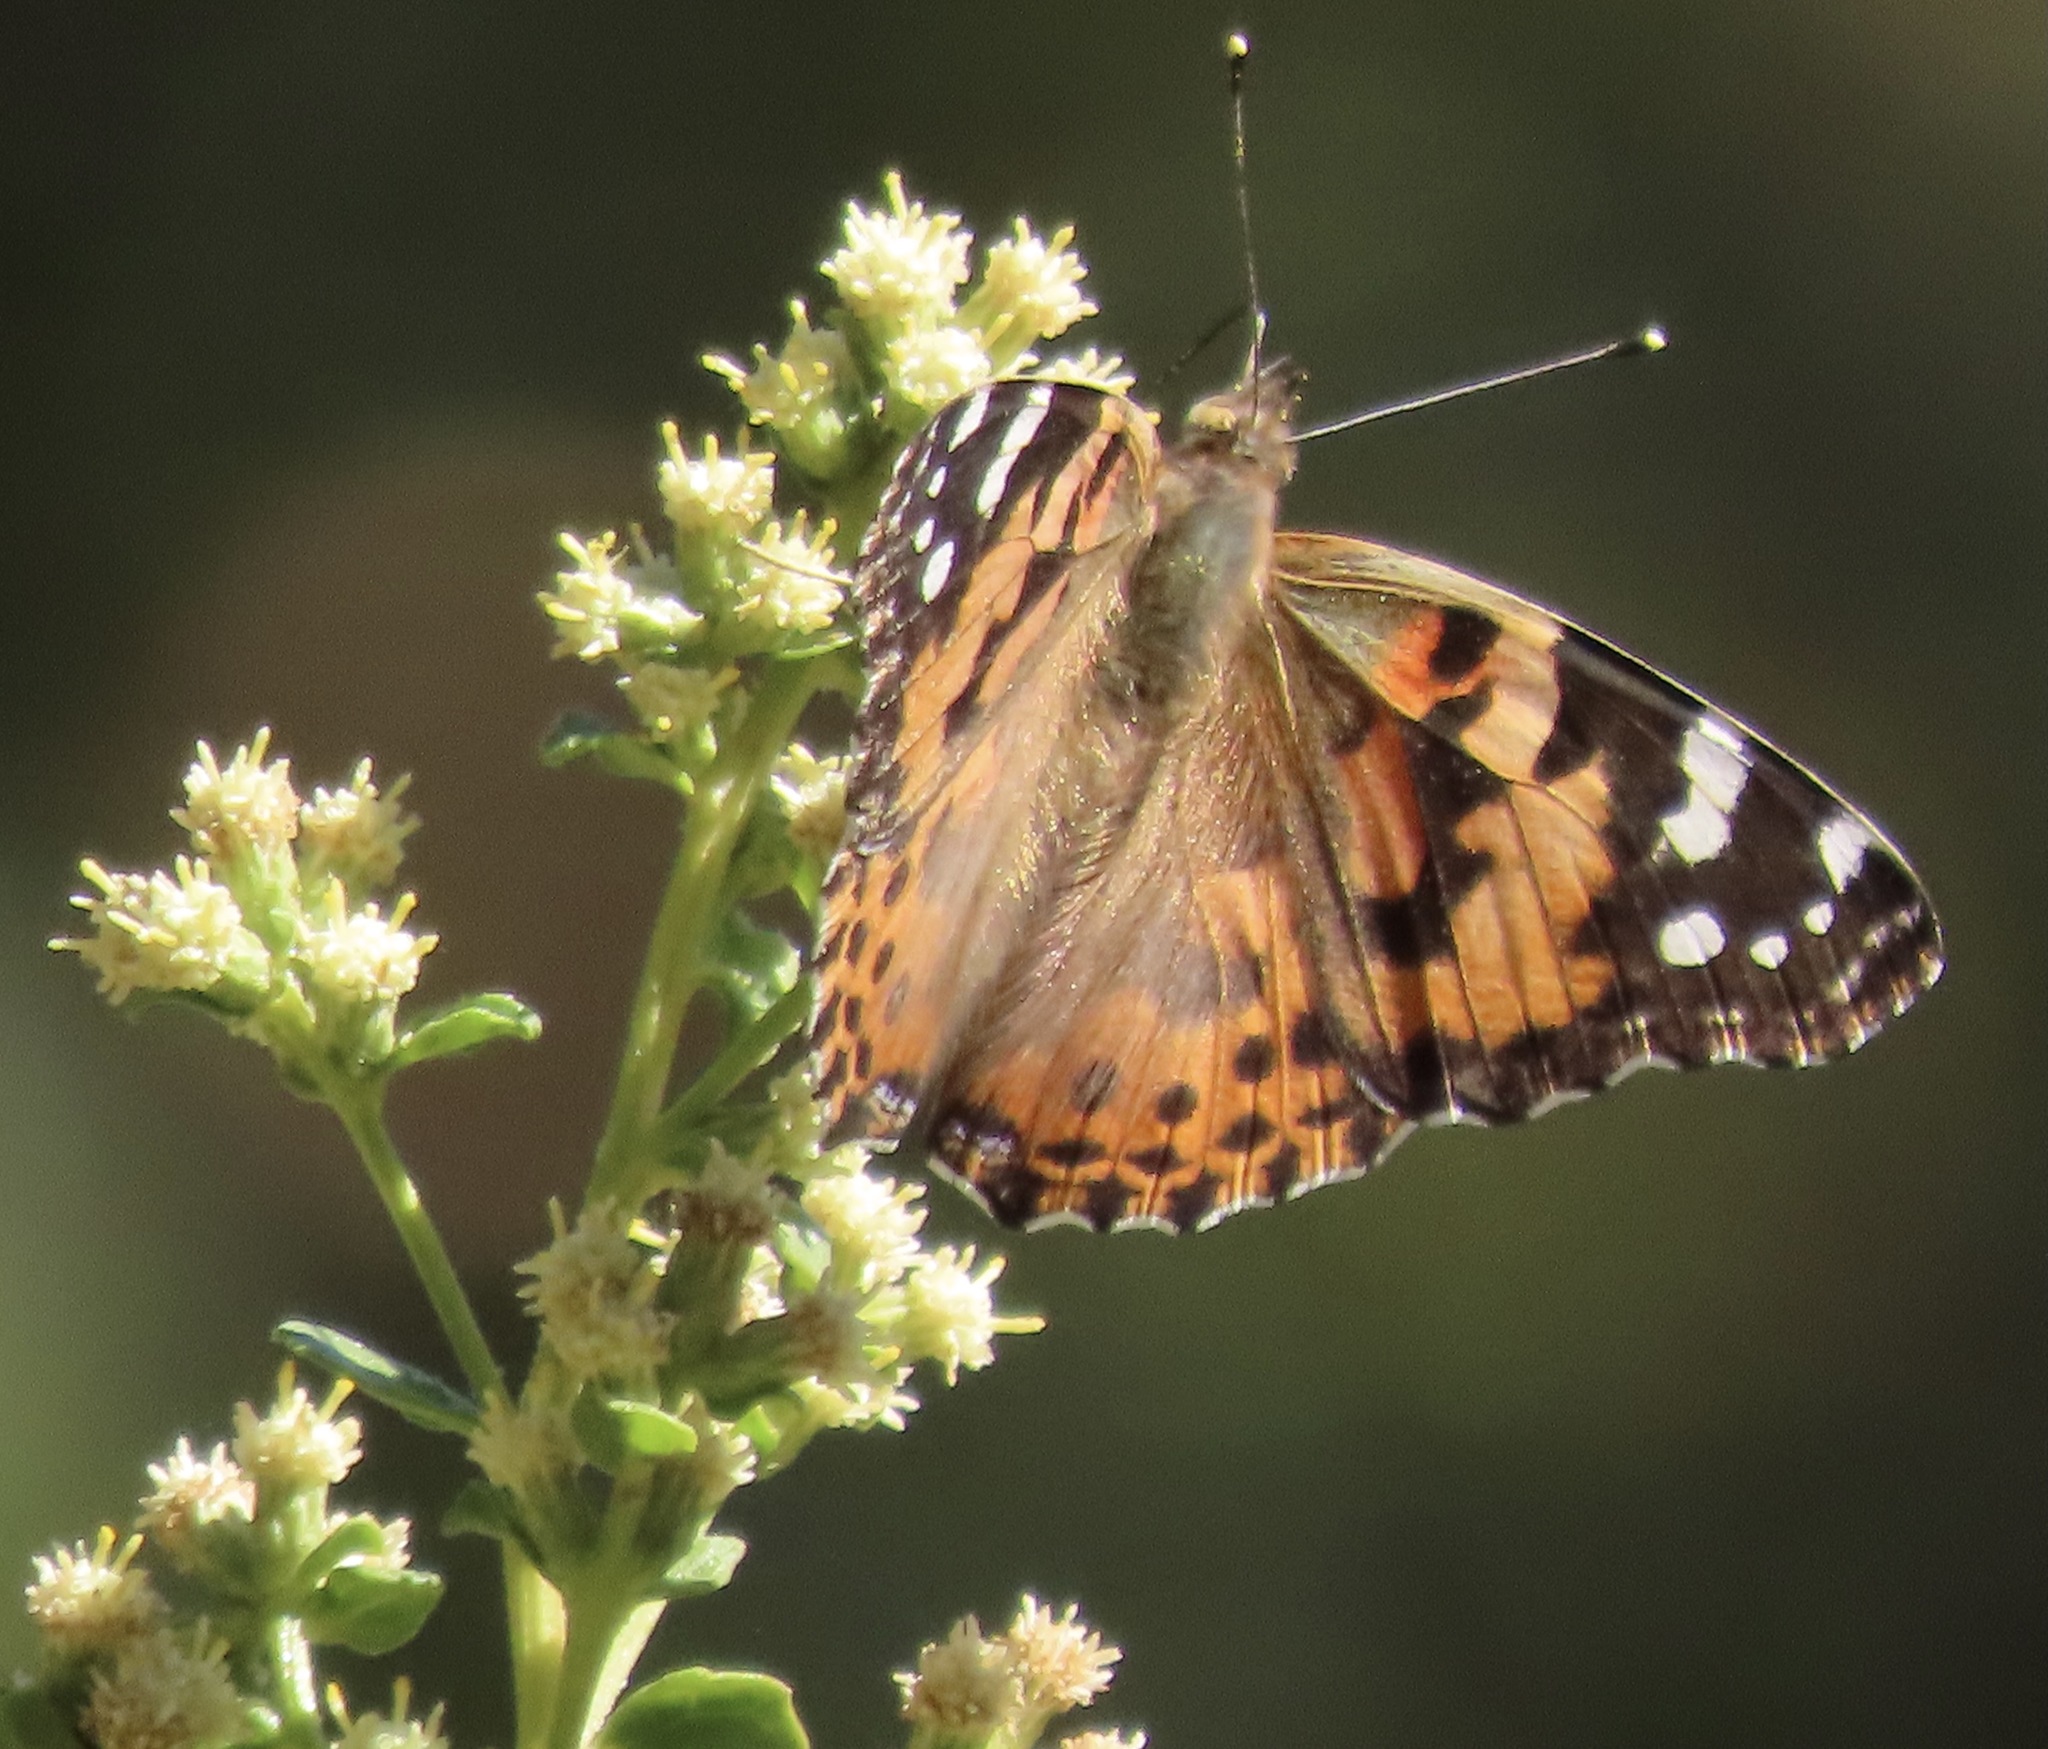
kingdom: Animalia
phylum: Arthropoda
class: Insecta
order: Lepidoptera
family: Nymphalidae
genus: Vanessa
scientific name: Vanessa cardui
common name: Painted lady
